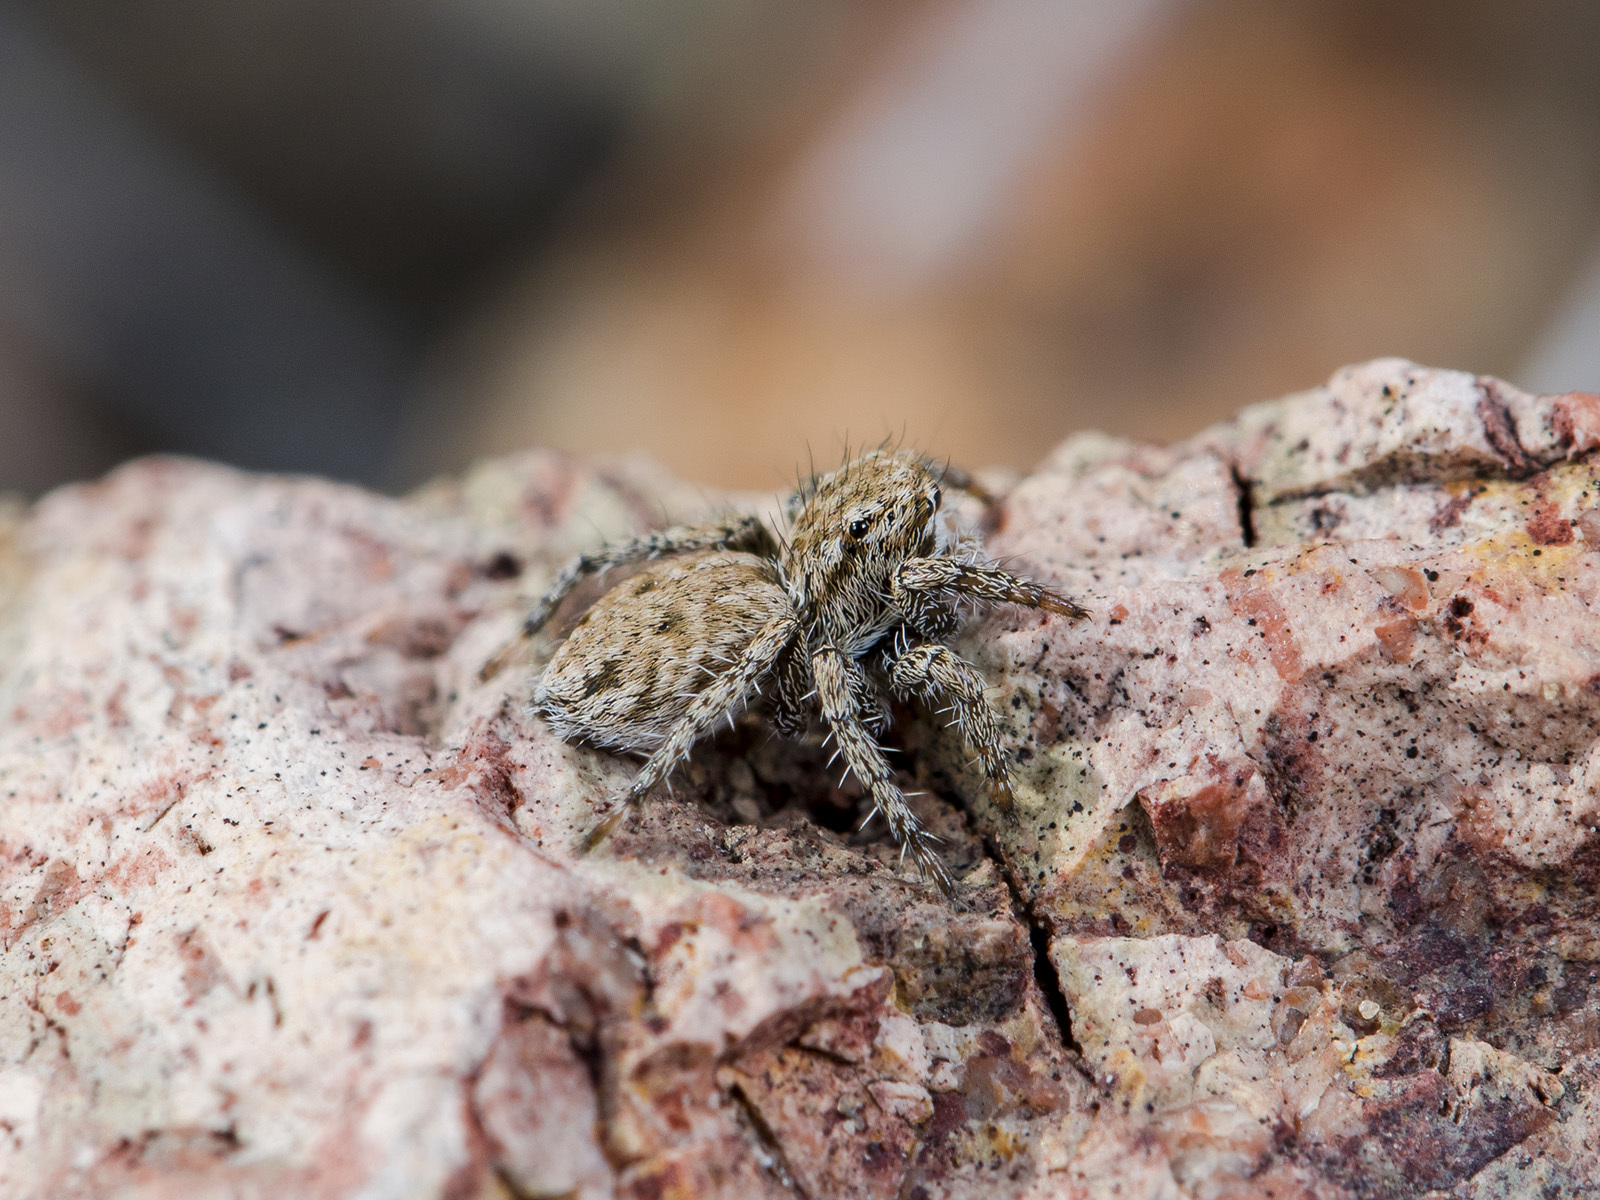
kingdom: Animalia
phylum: Arthropoda
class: Arachnida
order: Araneae
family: Salticidae
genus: Rafalus
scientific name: Rafalus variegatus
